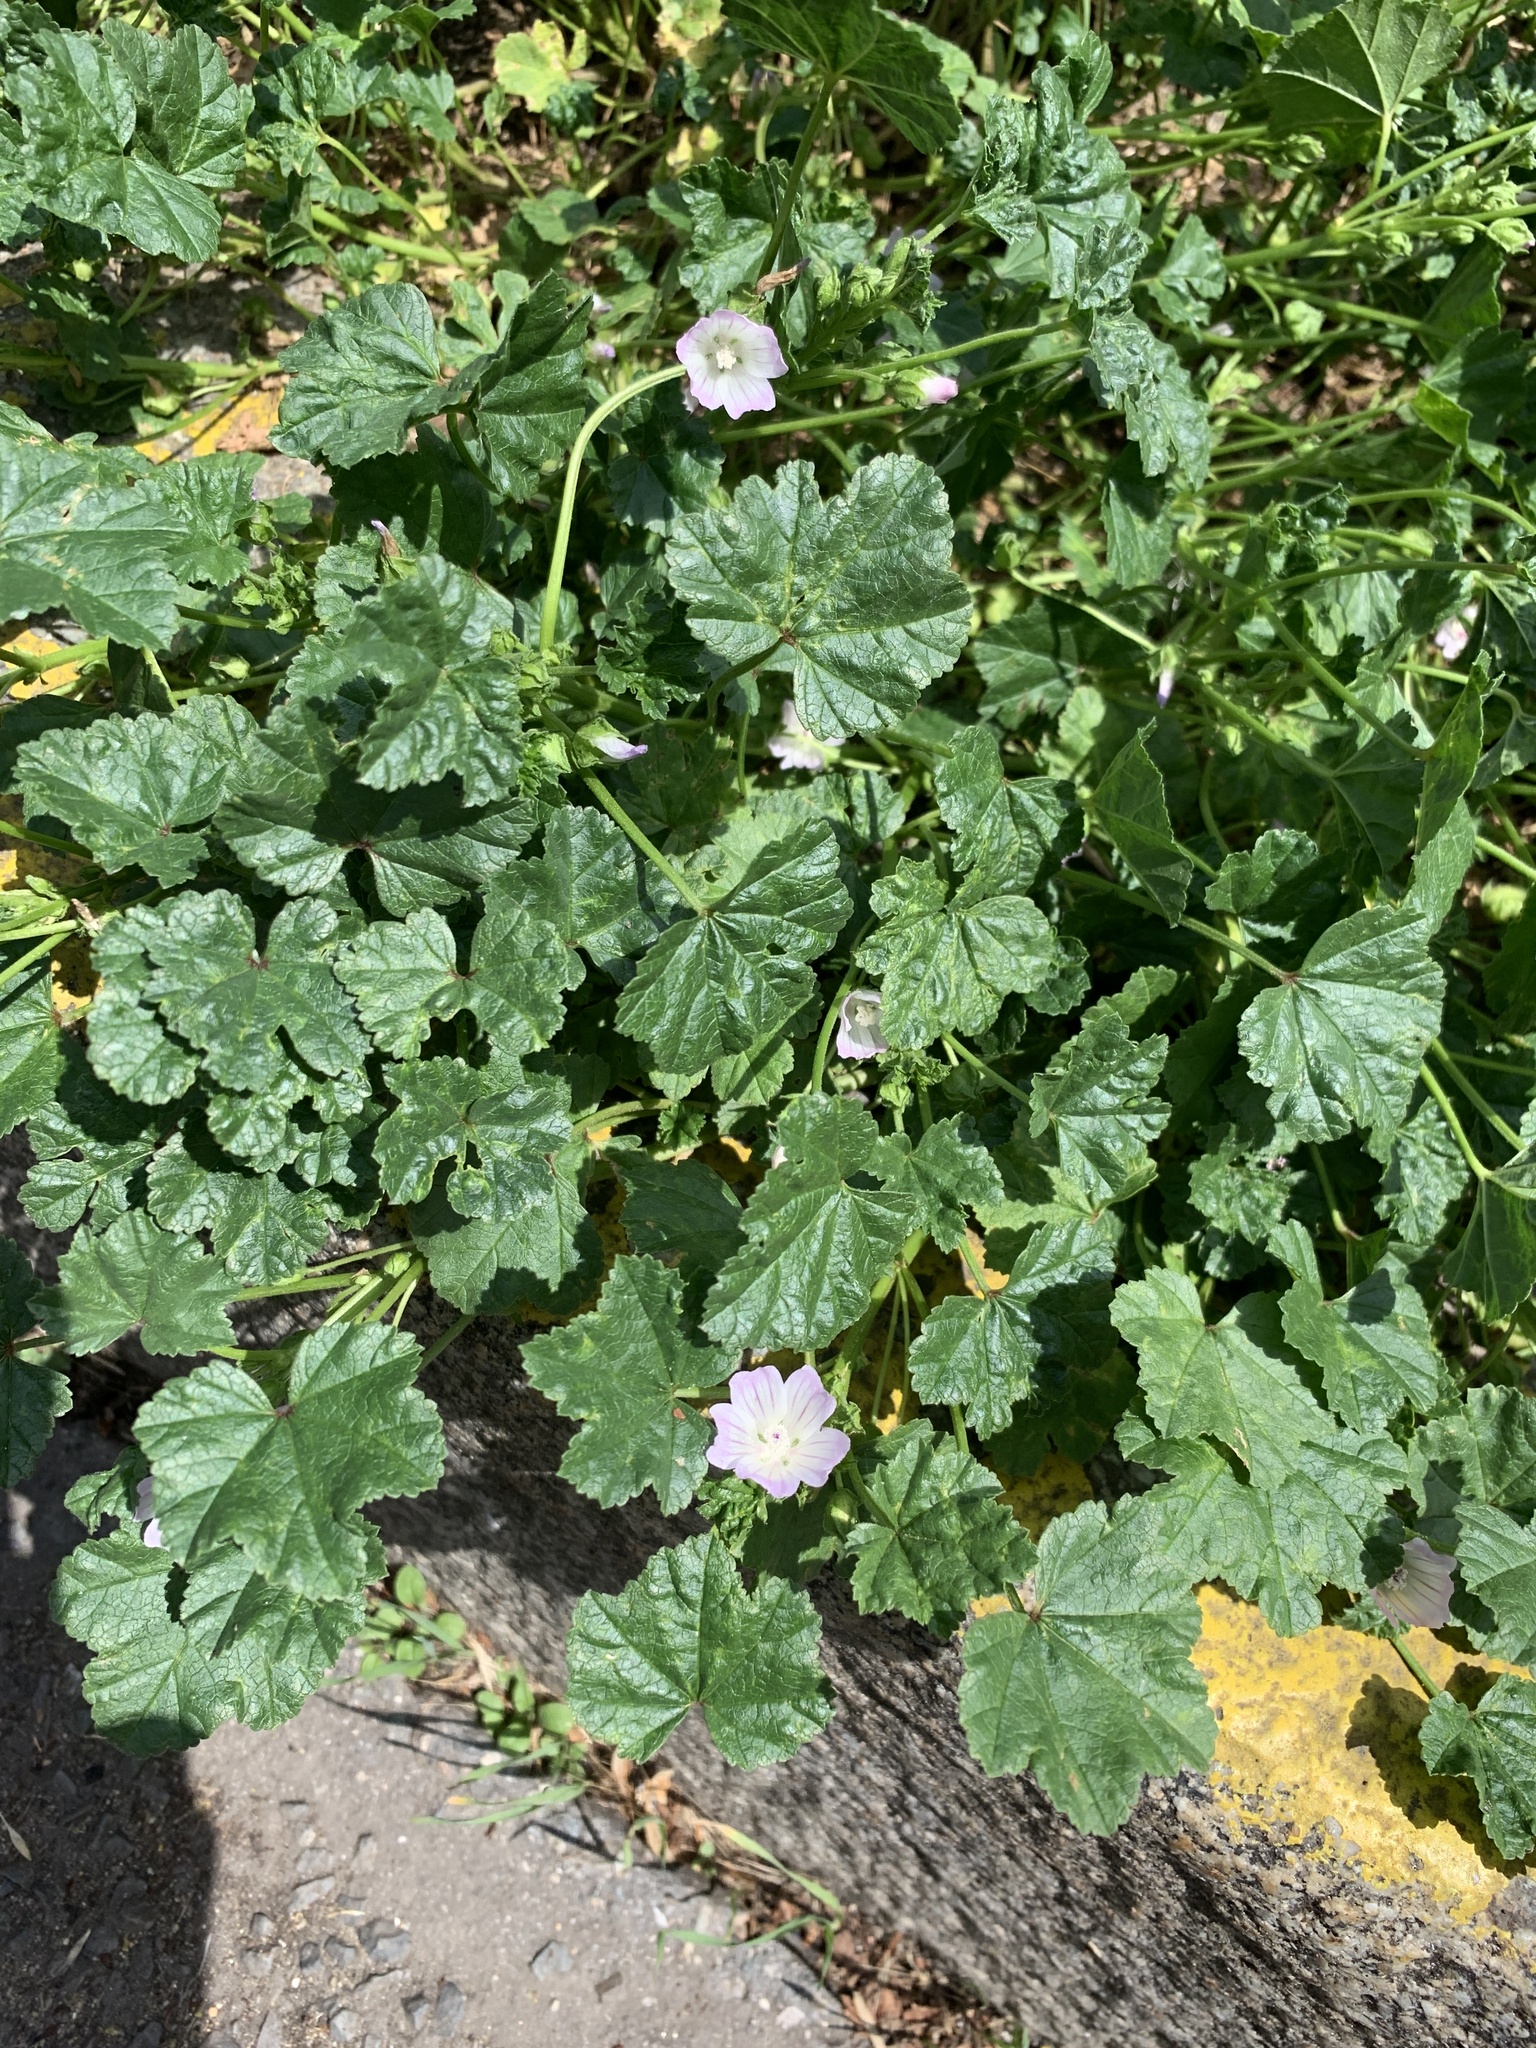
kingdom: Plantae
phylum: Tracheophyta
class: Magnoliopsida
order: Malvales
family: Malvaceae
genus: Malva
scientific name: Malva neglecta
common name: Common mallow
